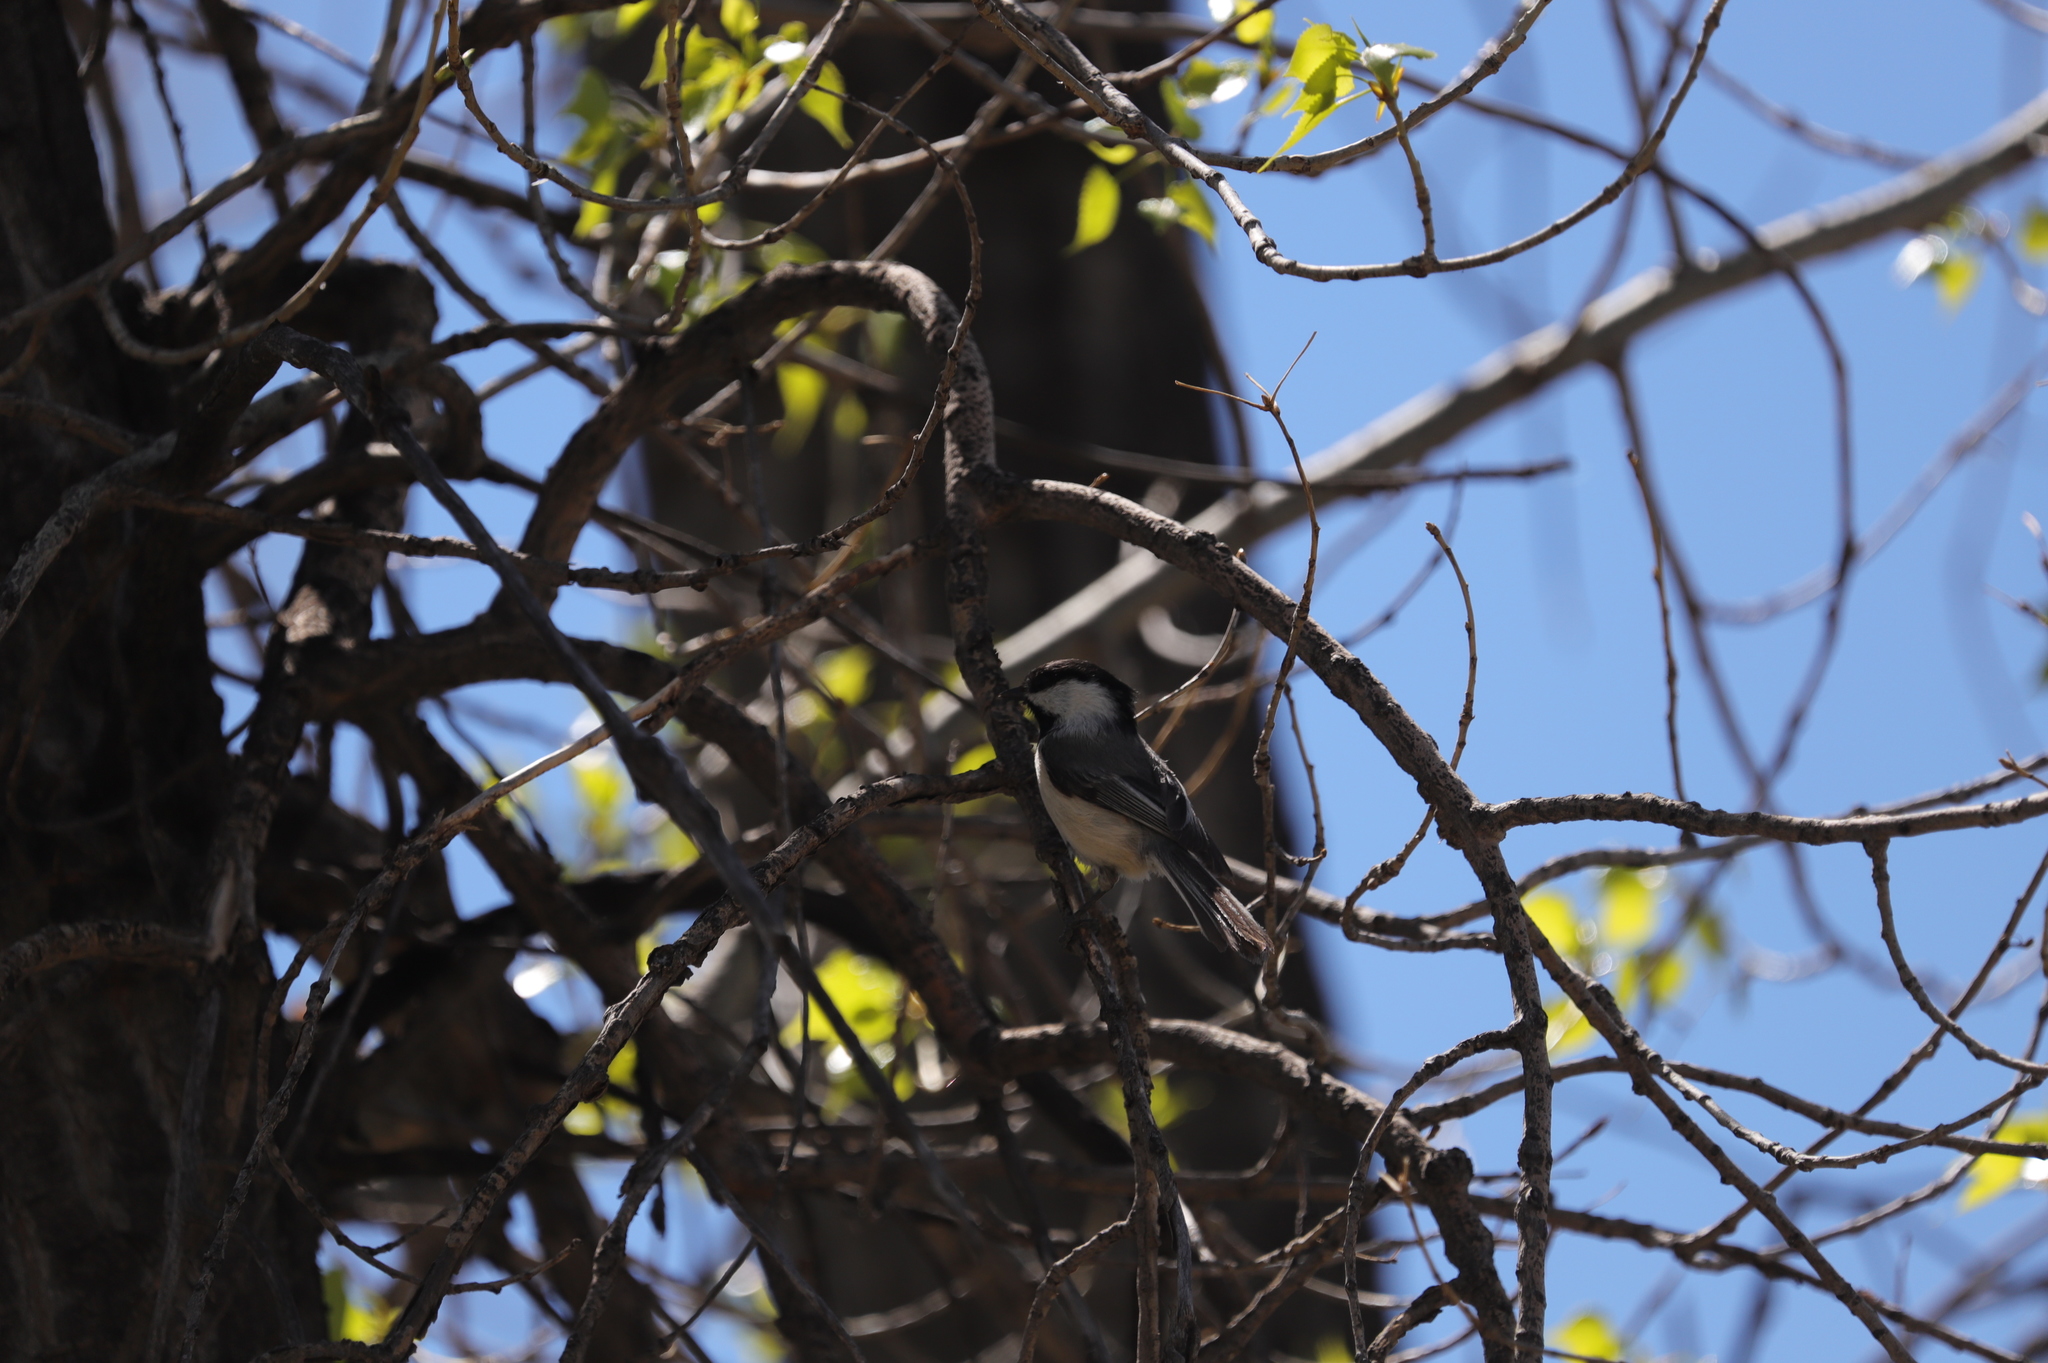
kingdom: Animalia
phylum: Chordata
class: Aves
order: Passeriformes
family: Paridae
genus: Poecile
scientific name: Poecile atricapillus
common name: Black-capped chickadee
